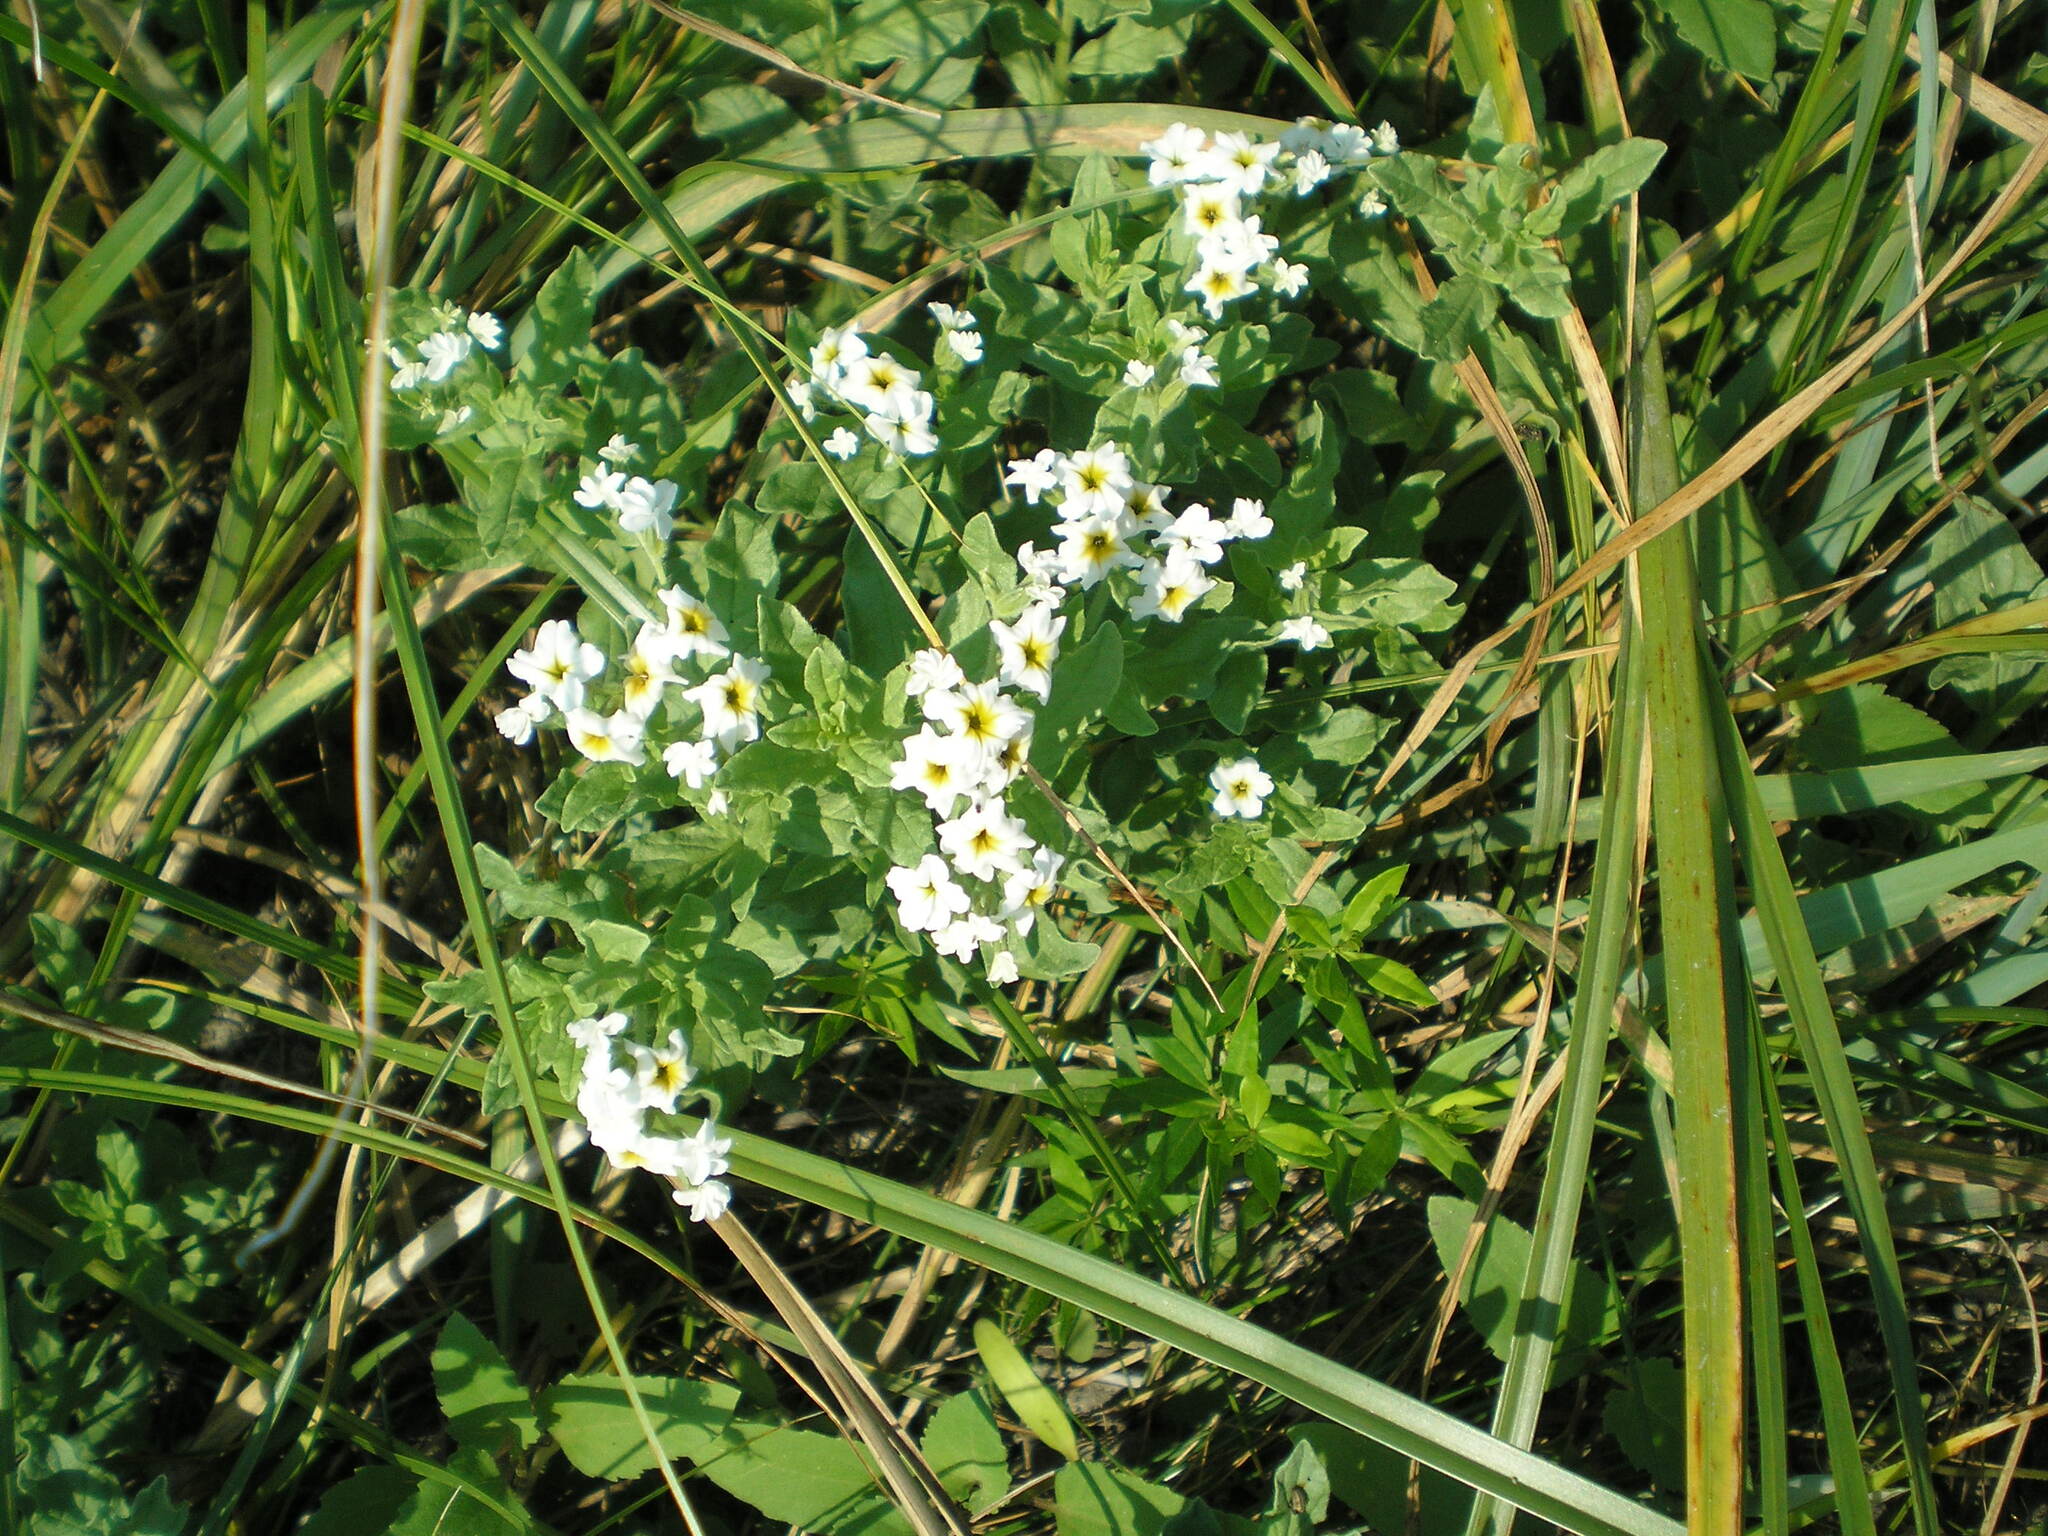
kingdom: Plantae
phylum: Tracheophyta
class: Magnoliopsida
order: Boraginales
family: Heliotropiaceae
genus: Tournefortia
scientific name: Tournefortia sibirica
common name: Siberian sea rosemary
